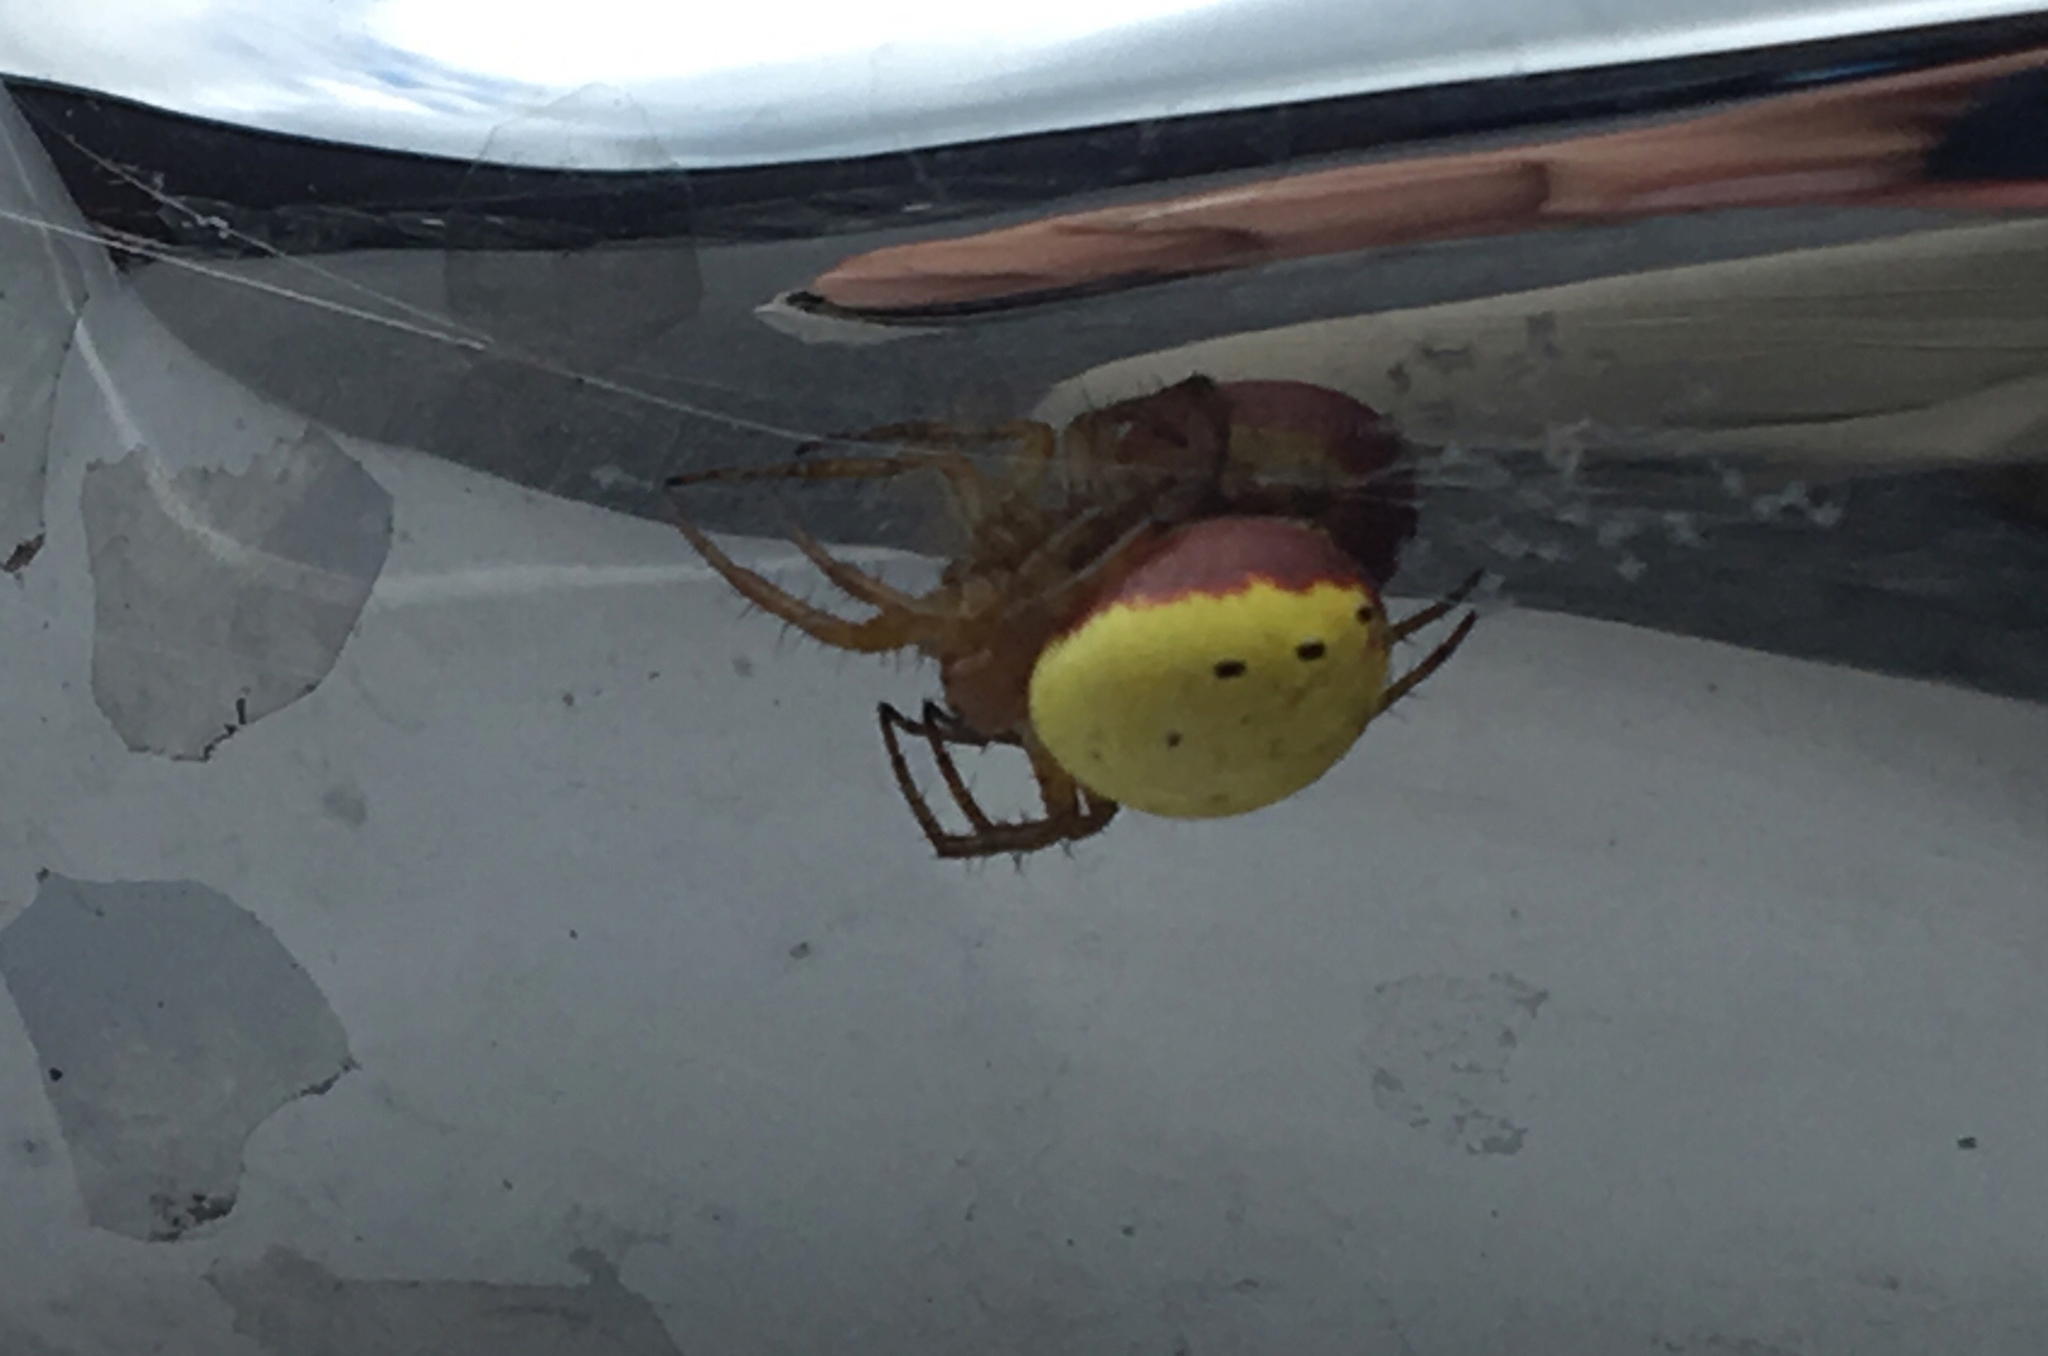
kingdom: Animalia
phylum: Arthropoda
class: Arachnida
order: Araneae
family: Araneidae
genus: Araniella
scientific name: Araniella displicata
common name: Sixspotted orb weaver
